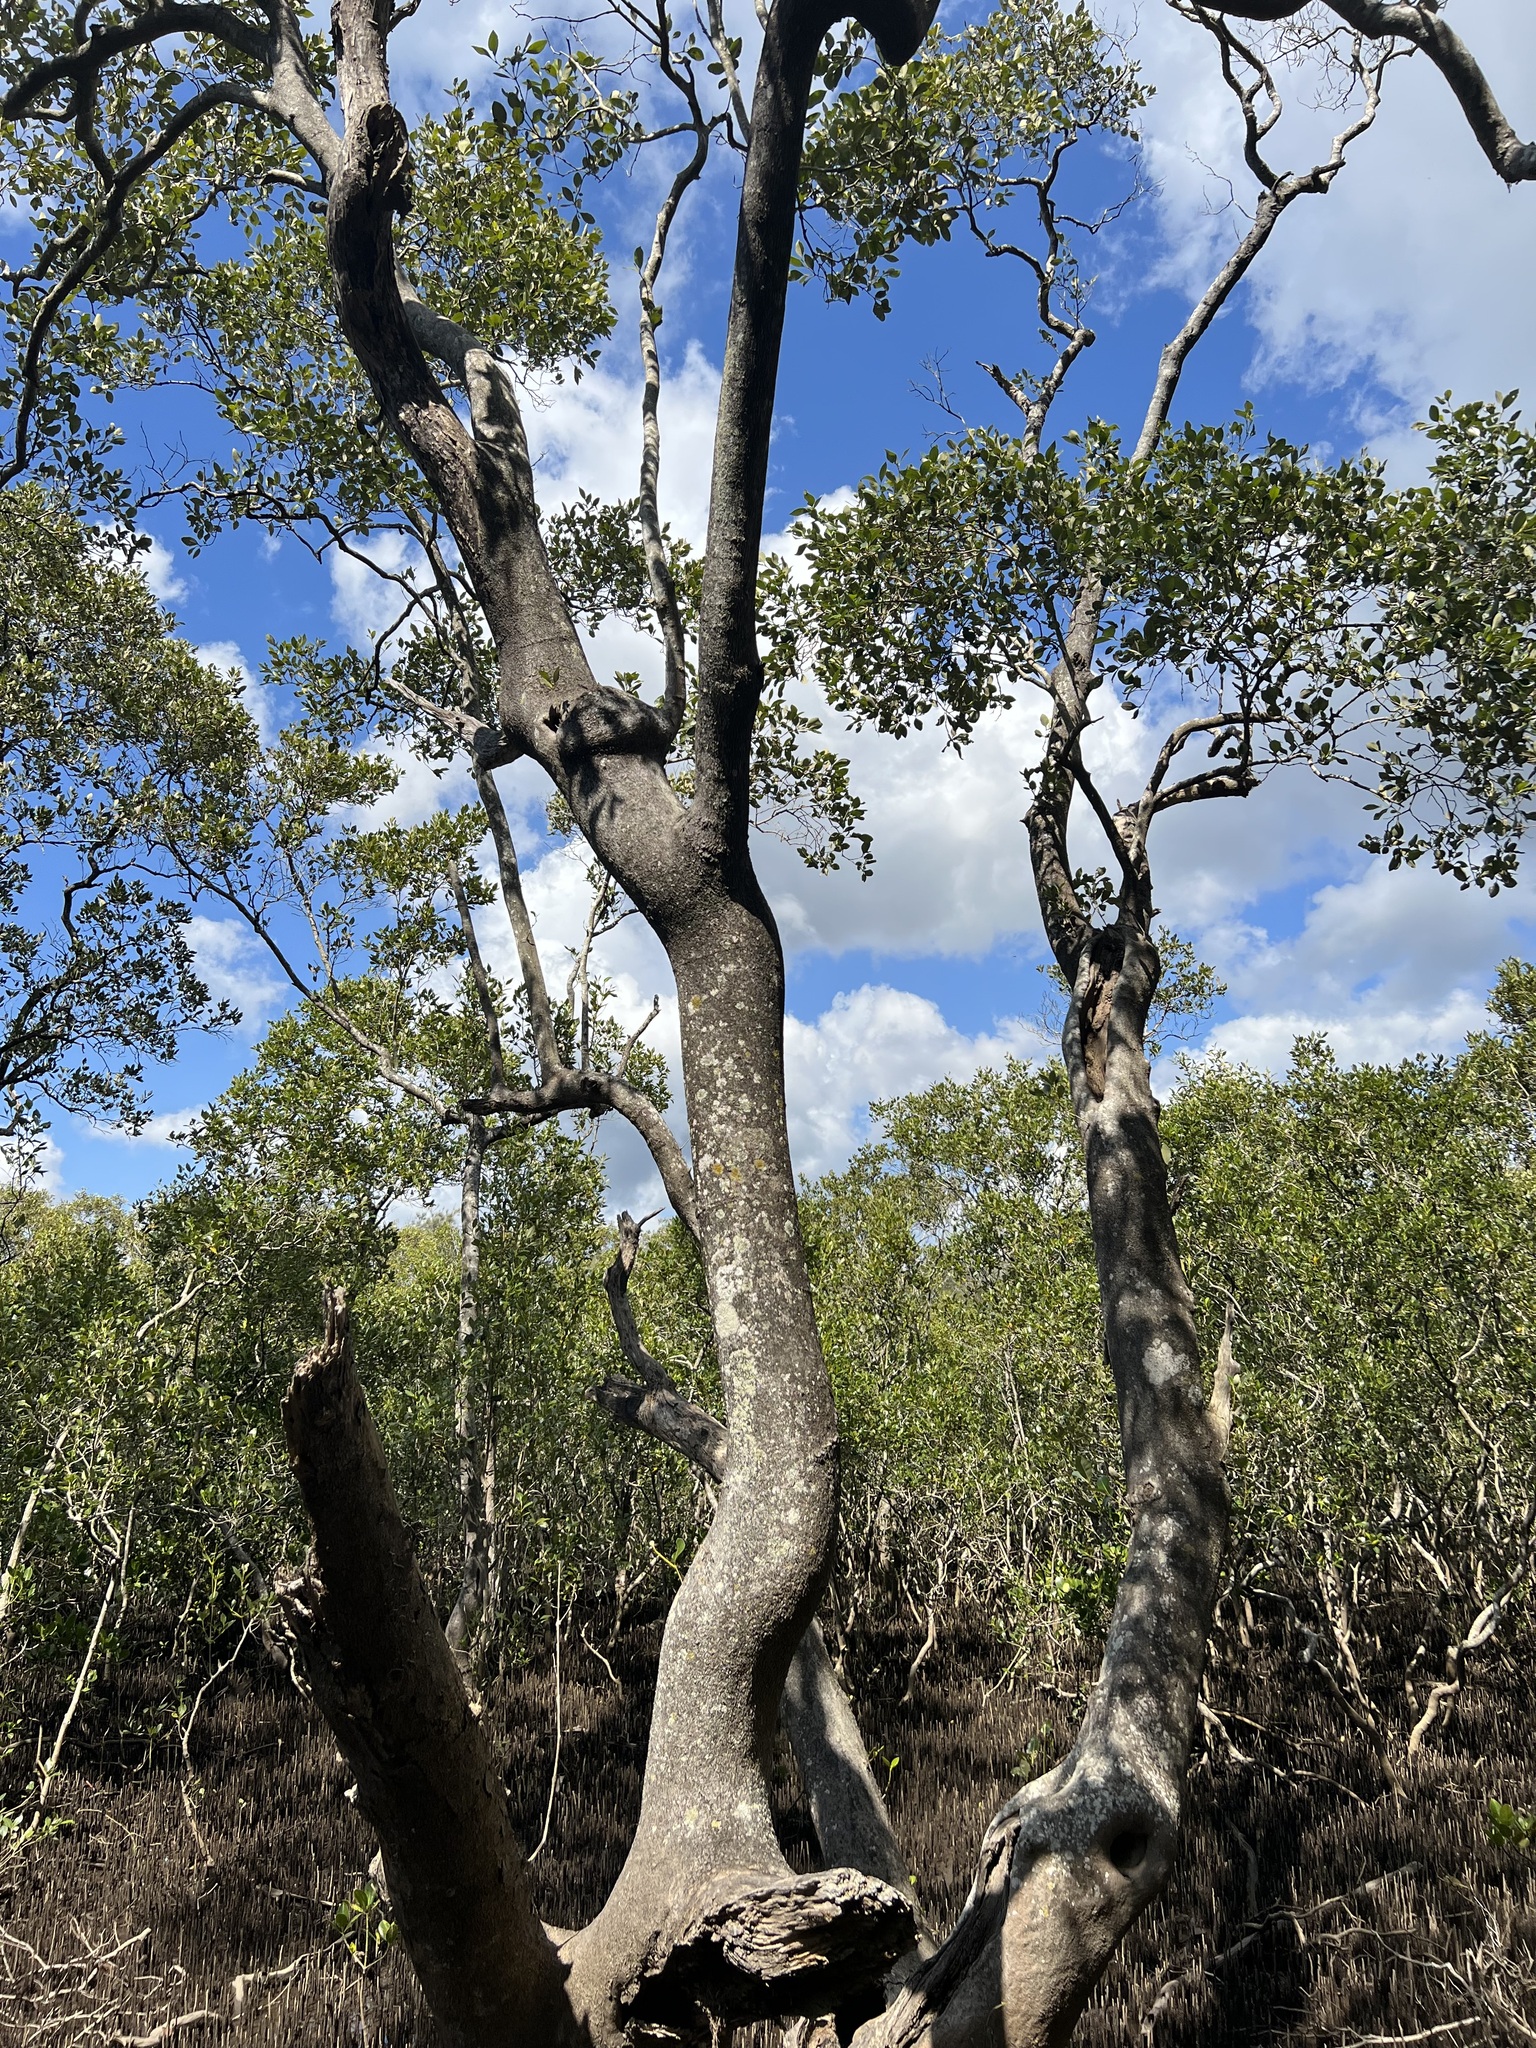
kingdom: Plantae
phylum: Tracheophyta
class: Magnoliopsida
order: Lamiales
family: Acanthaceae
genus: Avicennia
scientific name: Avicennia marina
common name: Gray mangrove
